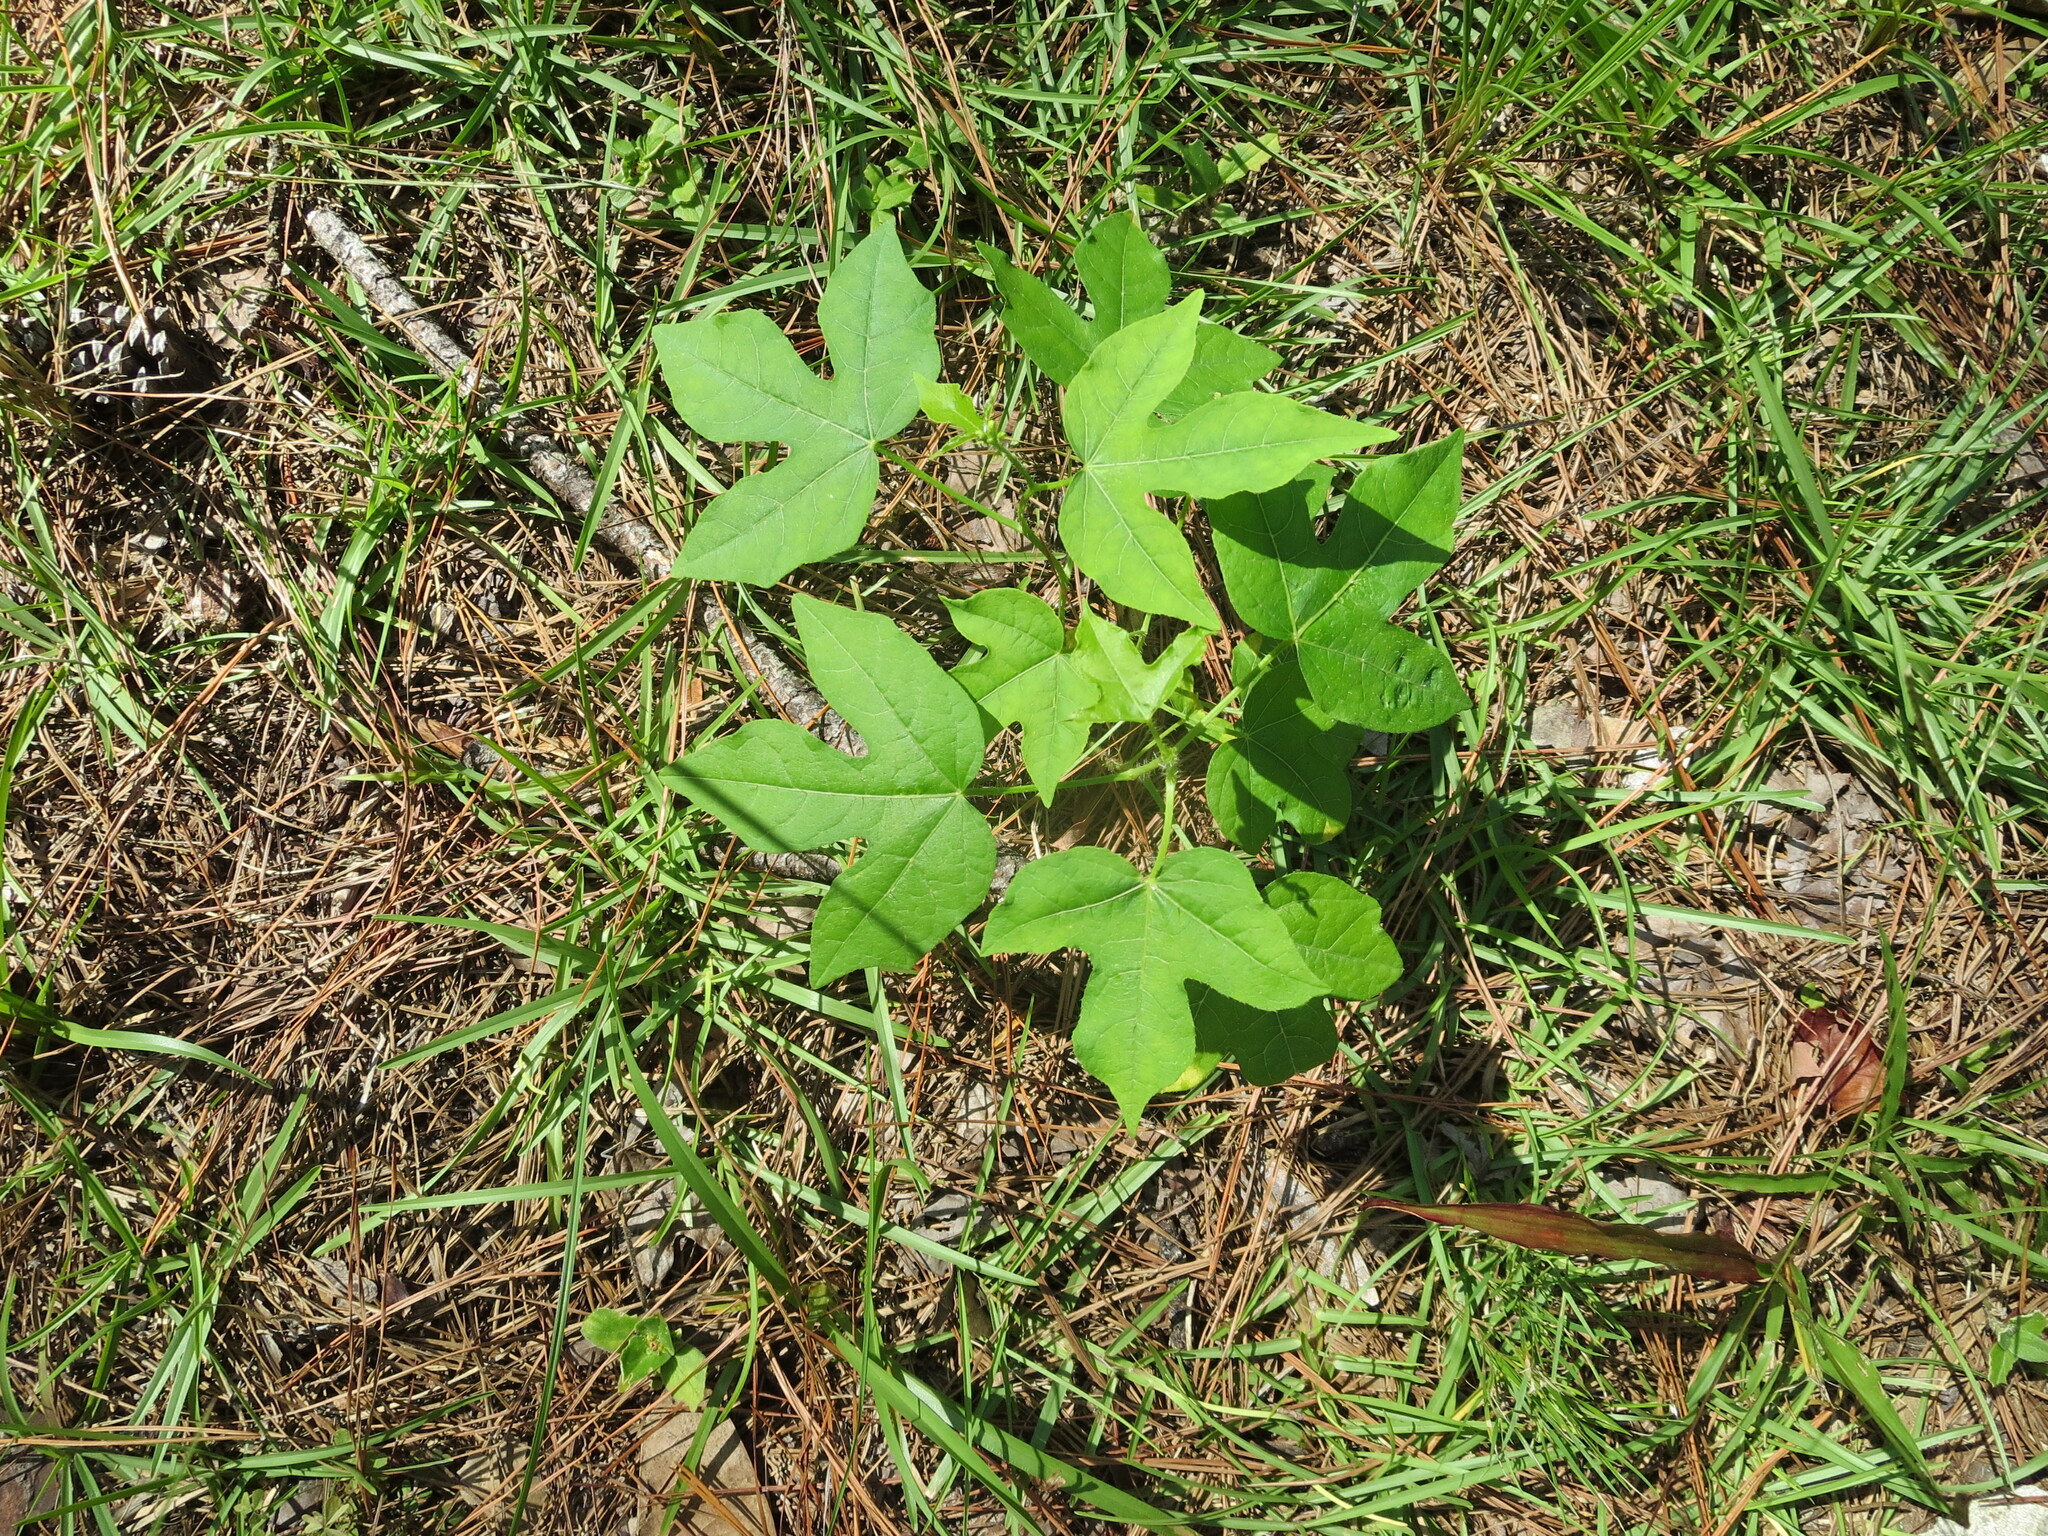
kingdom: Plantae
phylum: Tracheophyta
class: Magnoliopsida
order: Malpighiales
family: Euphorbiaceae
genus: Cnidoscolus
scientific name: Cnidoscolus stimulosus
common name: Bull-nettle
